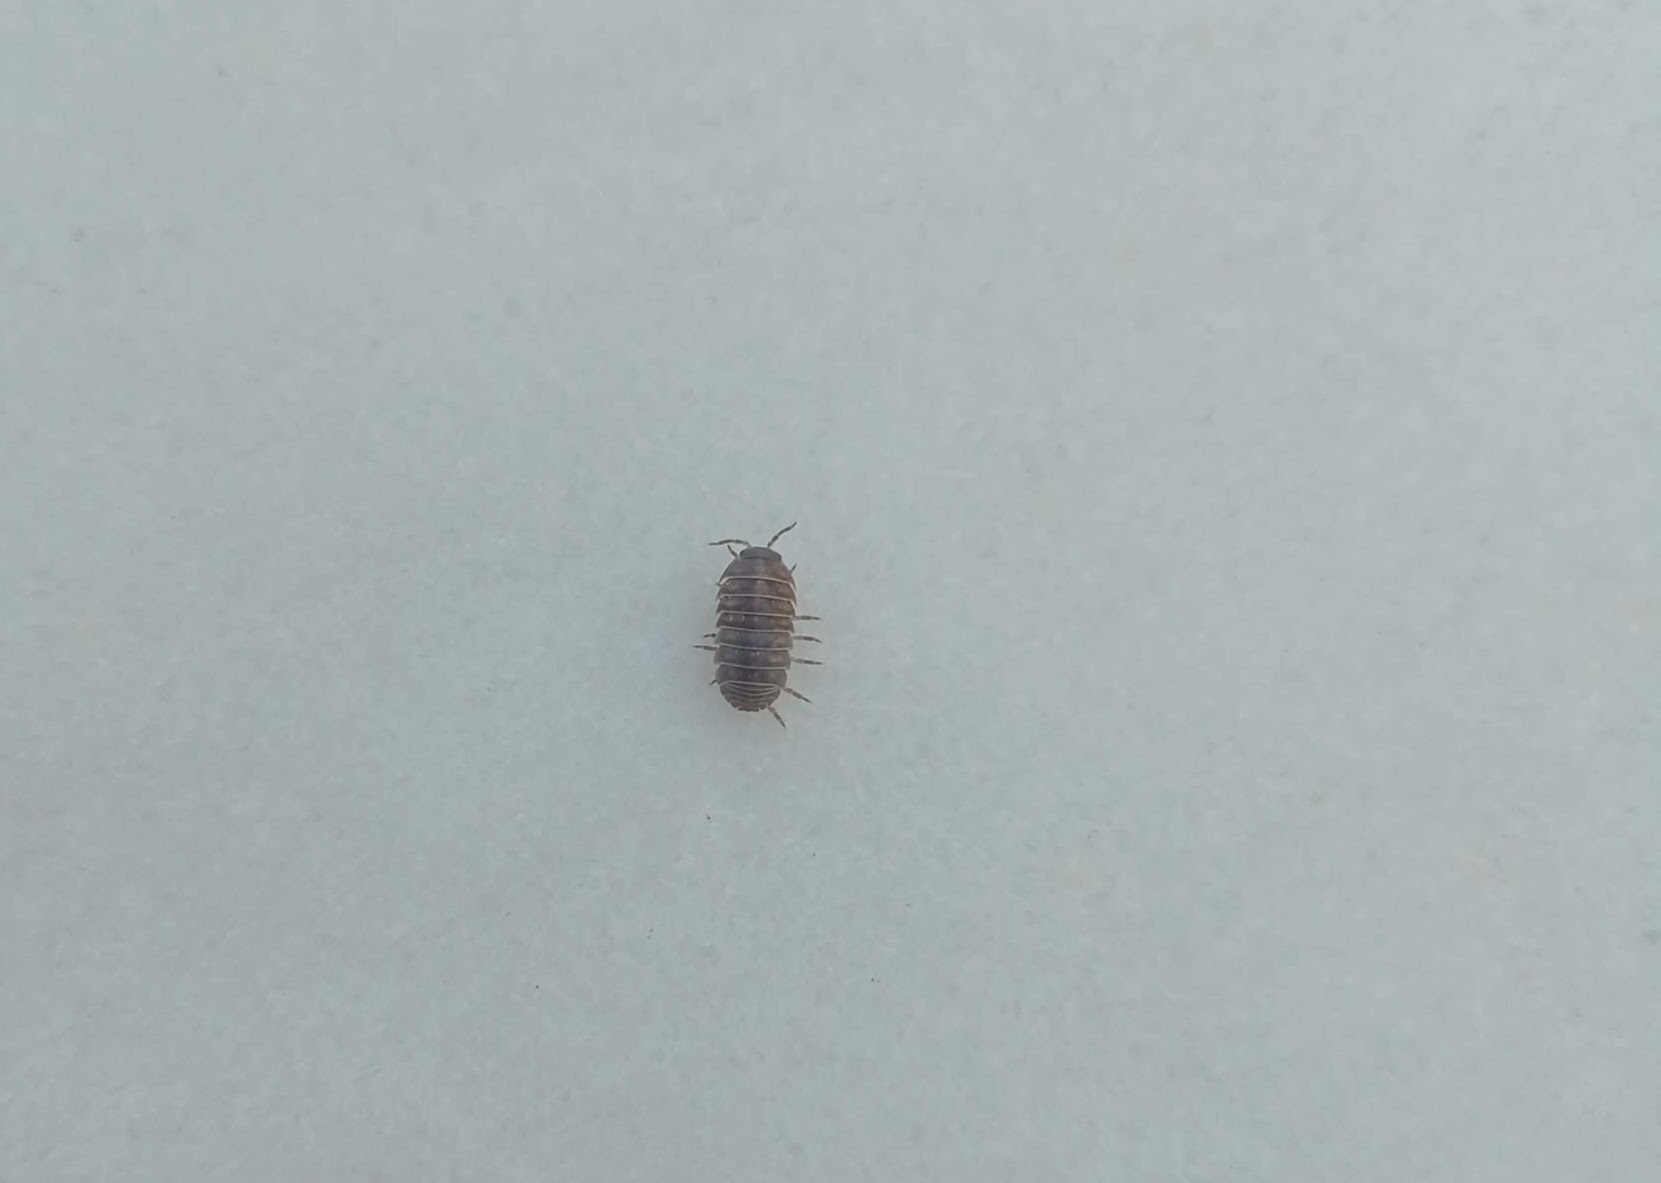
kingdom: Animalia
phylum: Arthropoda
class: Malacostraca
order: Isopoda
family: Armadillidiidae
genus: Armadillidium
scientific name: Armadillidium vulgare
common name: Common pill woodlouse
